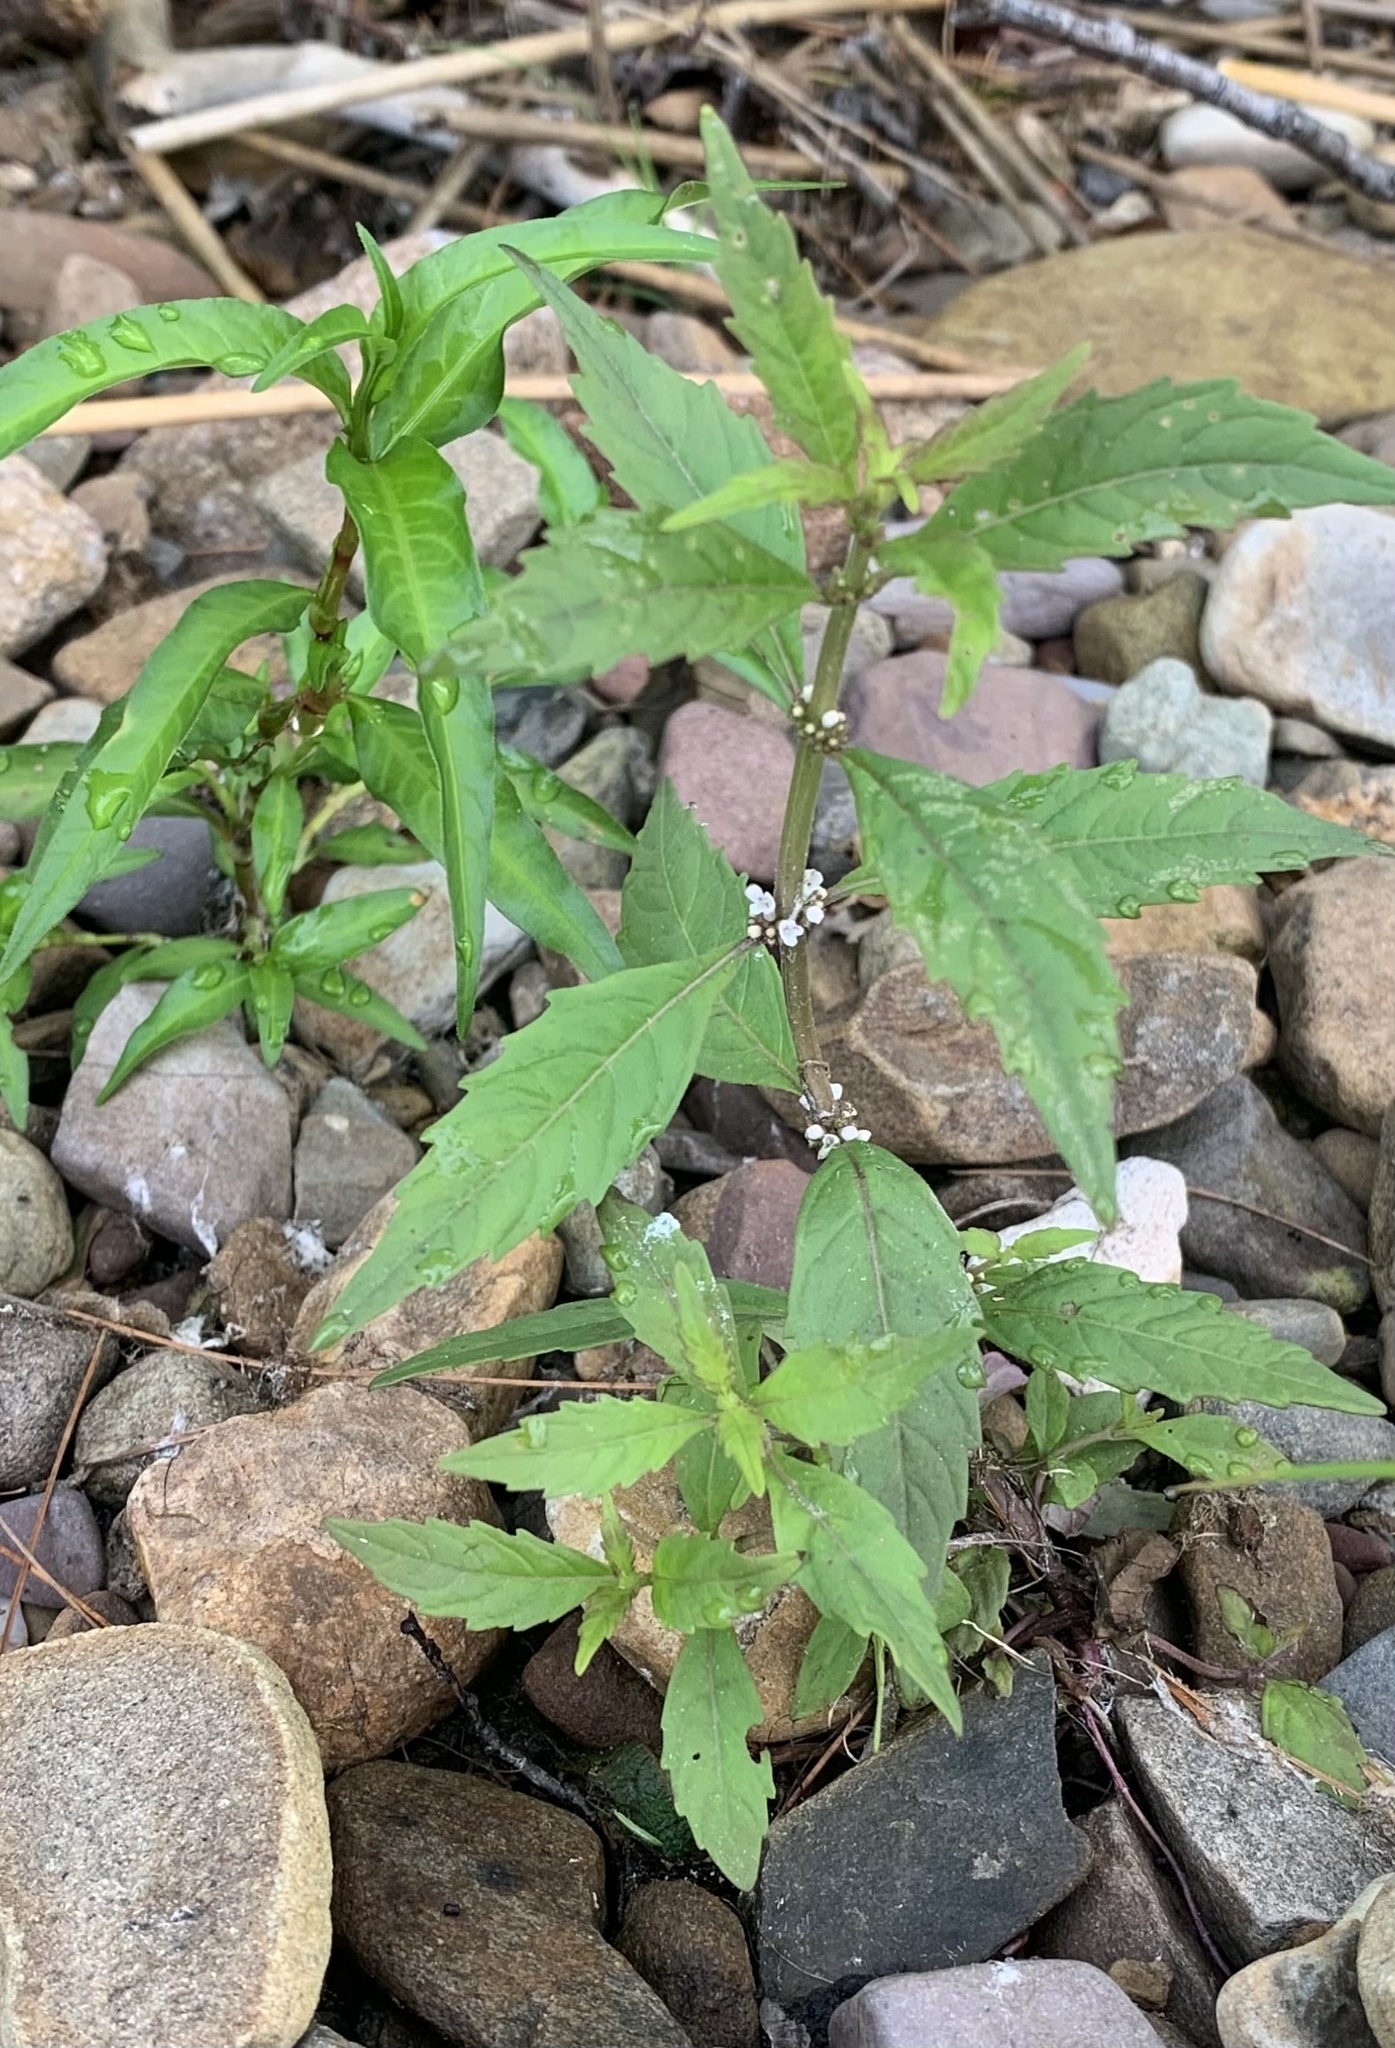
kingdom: Plantae
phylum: Tracheophyta
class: Magnoliopsida
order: Lamiales
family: Lamiaceae
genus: Lycopus
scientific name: Lycopus uniflorus
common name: Northern bugleweed
